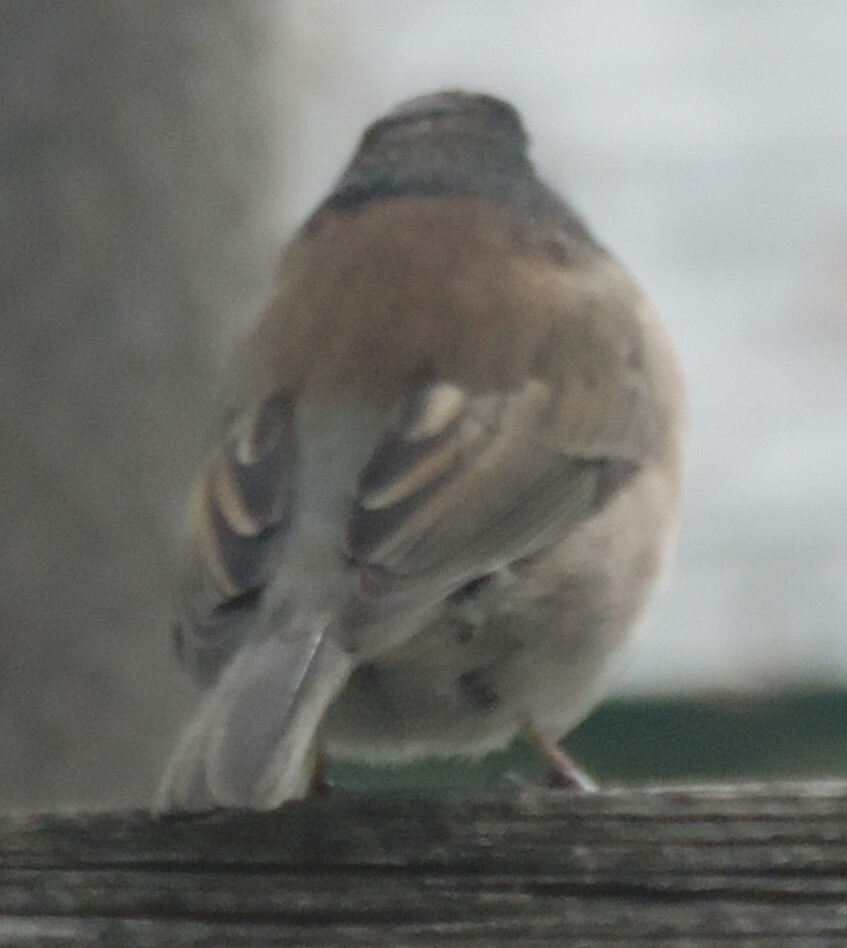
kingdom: Animalia
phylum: Chordata
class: Aves
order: Passeriformes
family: Passerellidae
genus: Junco
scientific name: Junco hyemalis
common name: Dark-eyed junco
